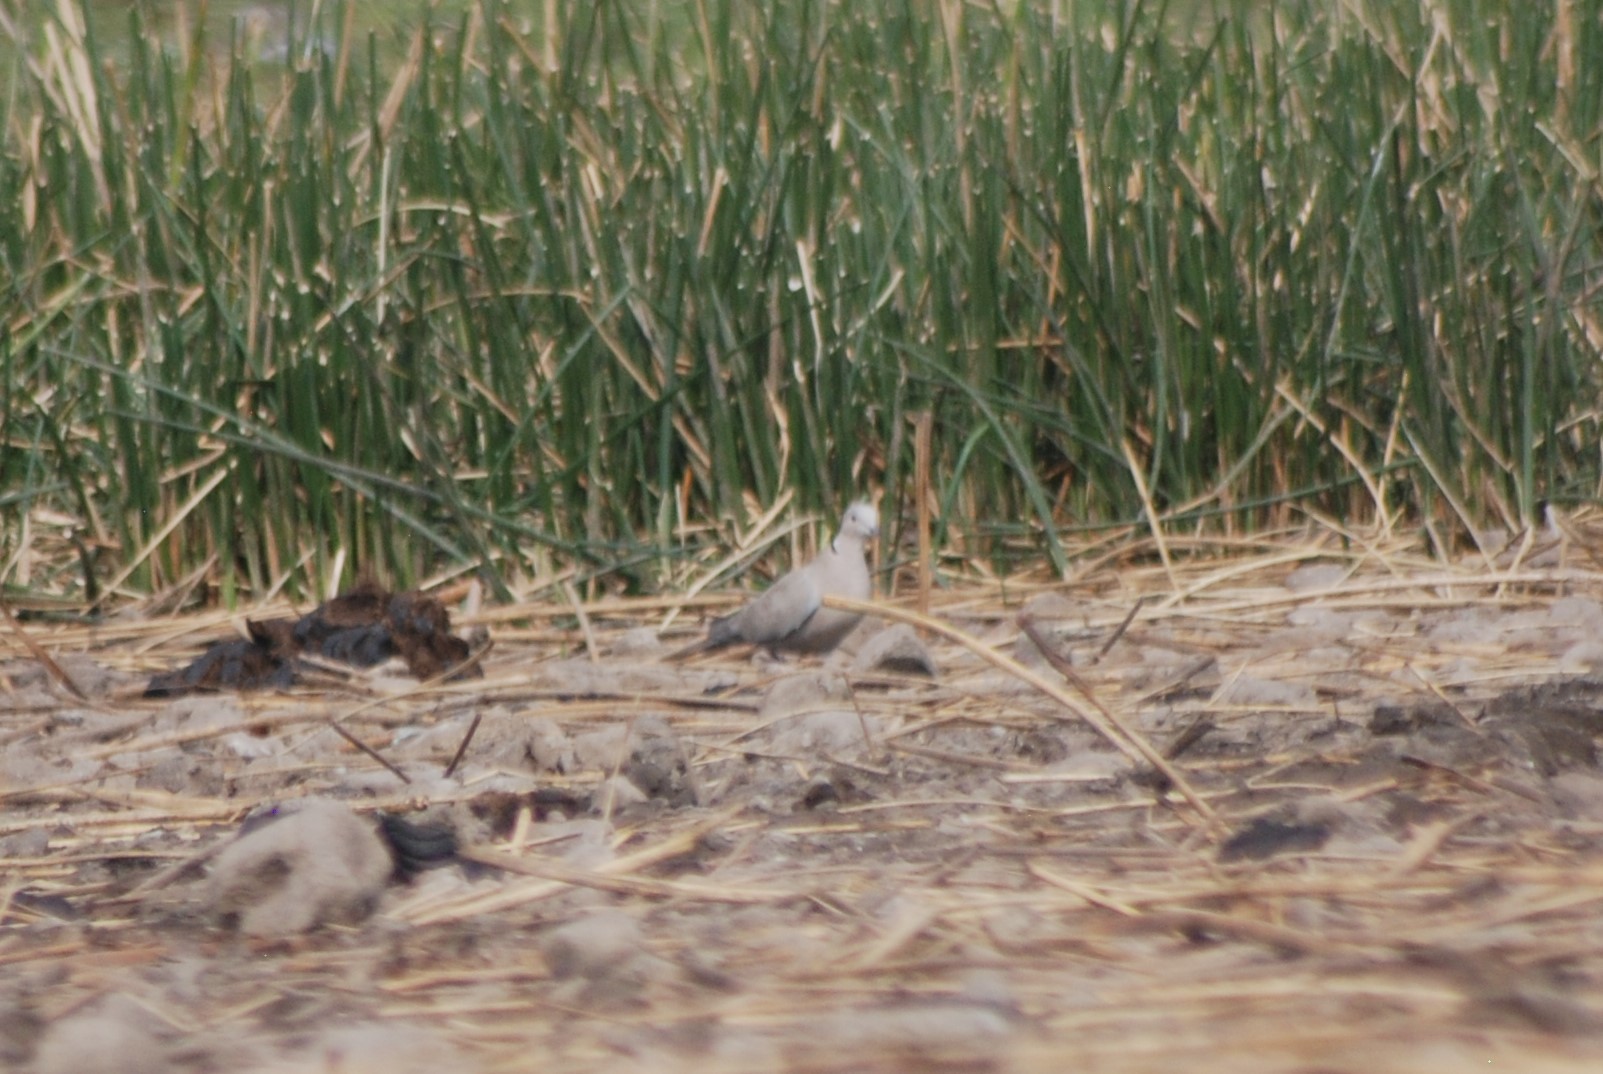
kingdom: Animalia
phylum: Chordata
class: Aves
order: Columbiformes
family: Columbidae
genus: Streptopelia
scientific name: Streptopelia decaocto
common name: Eurasian collared dove
